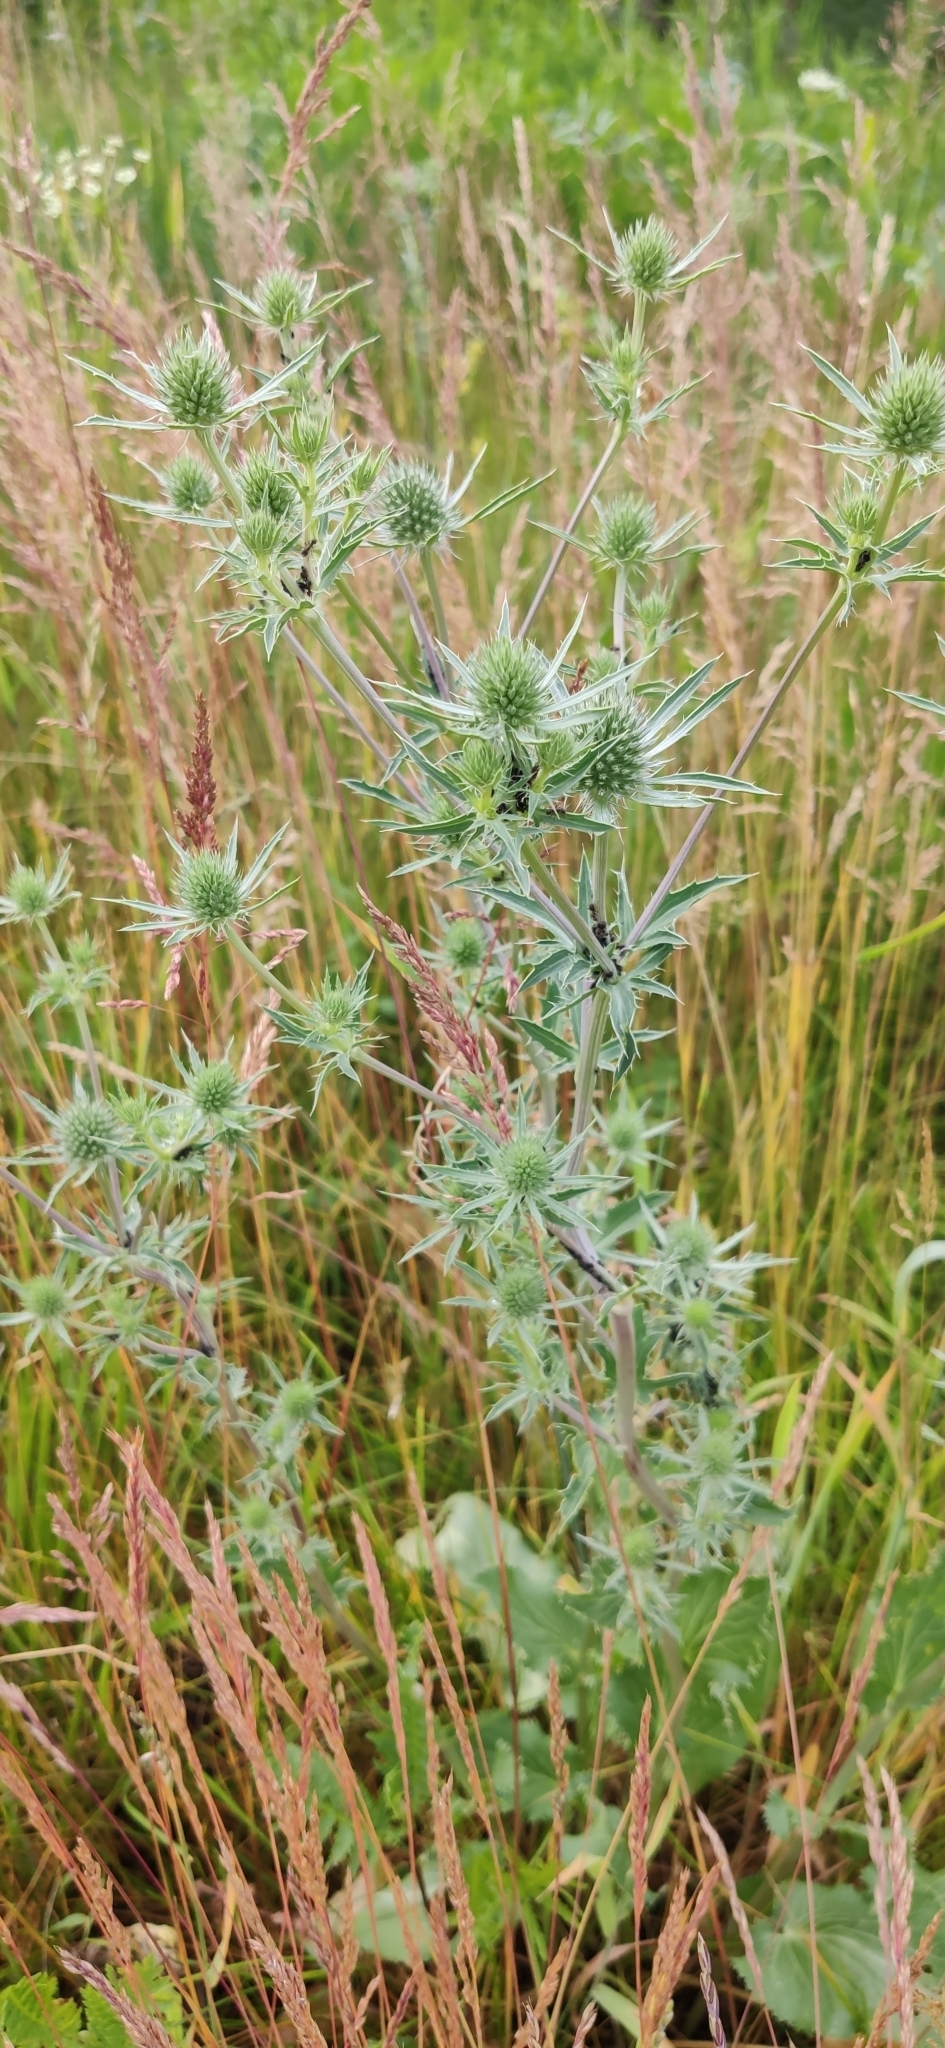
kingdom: Plantae
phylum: Tracheophyta
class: Magnoliopsida
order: Apiales
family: Apiaceae
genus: Eryngium
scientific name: Eryngium planum
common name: Blue eryngo
